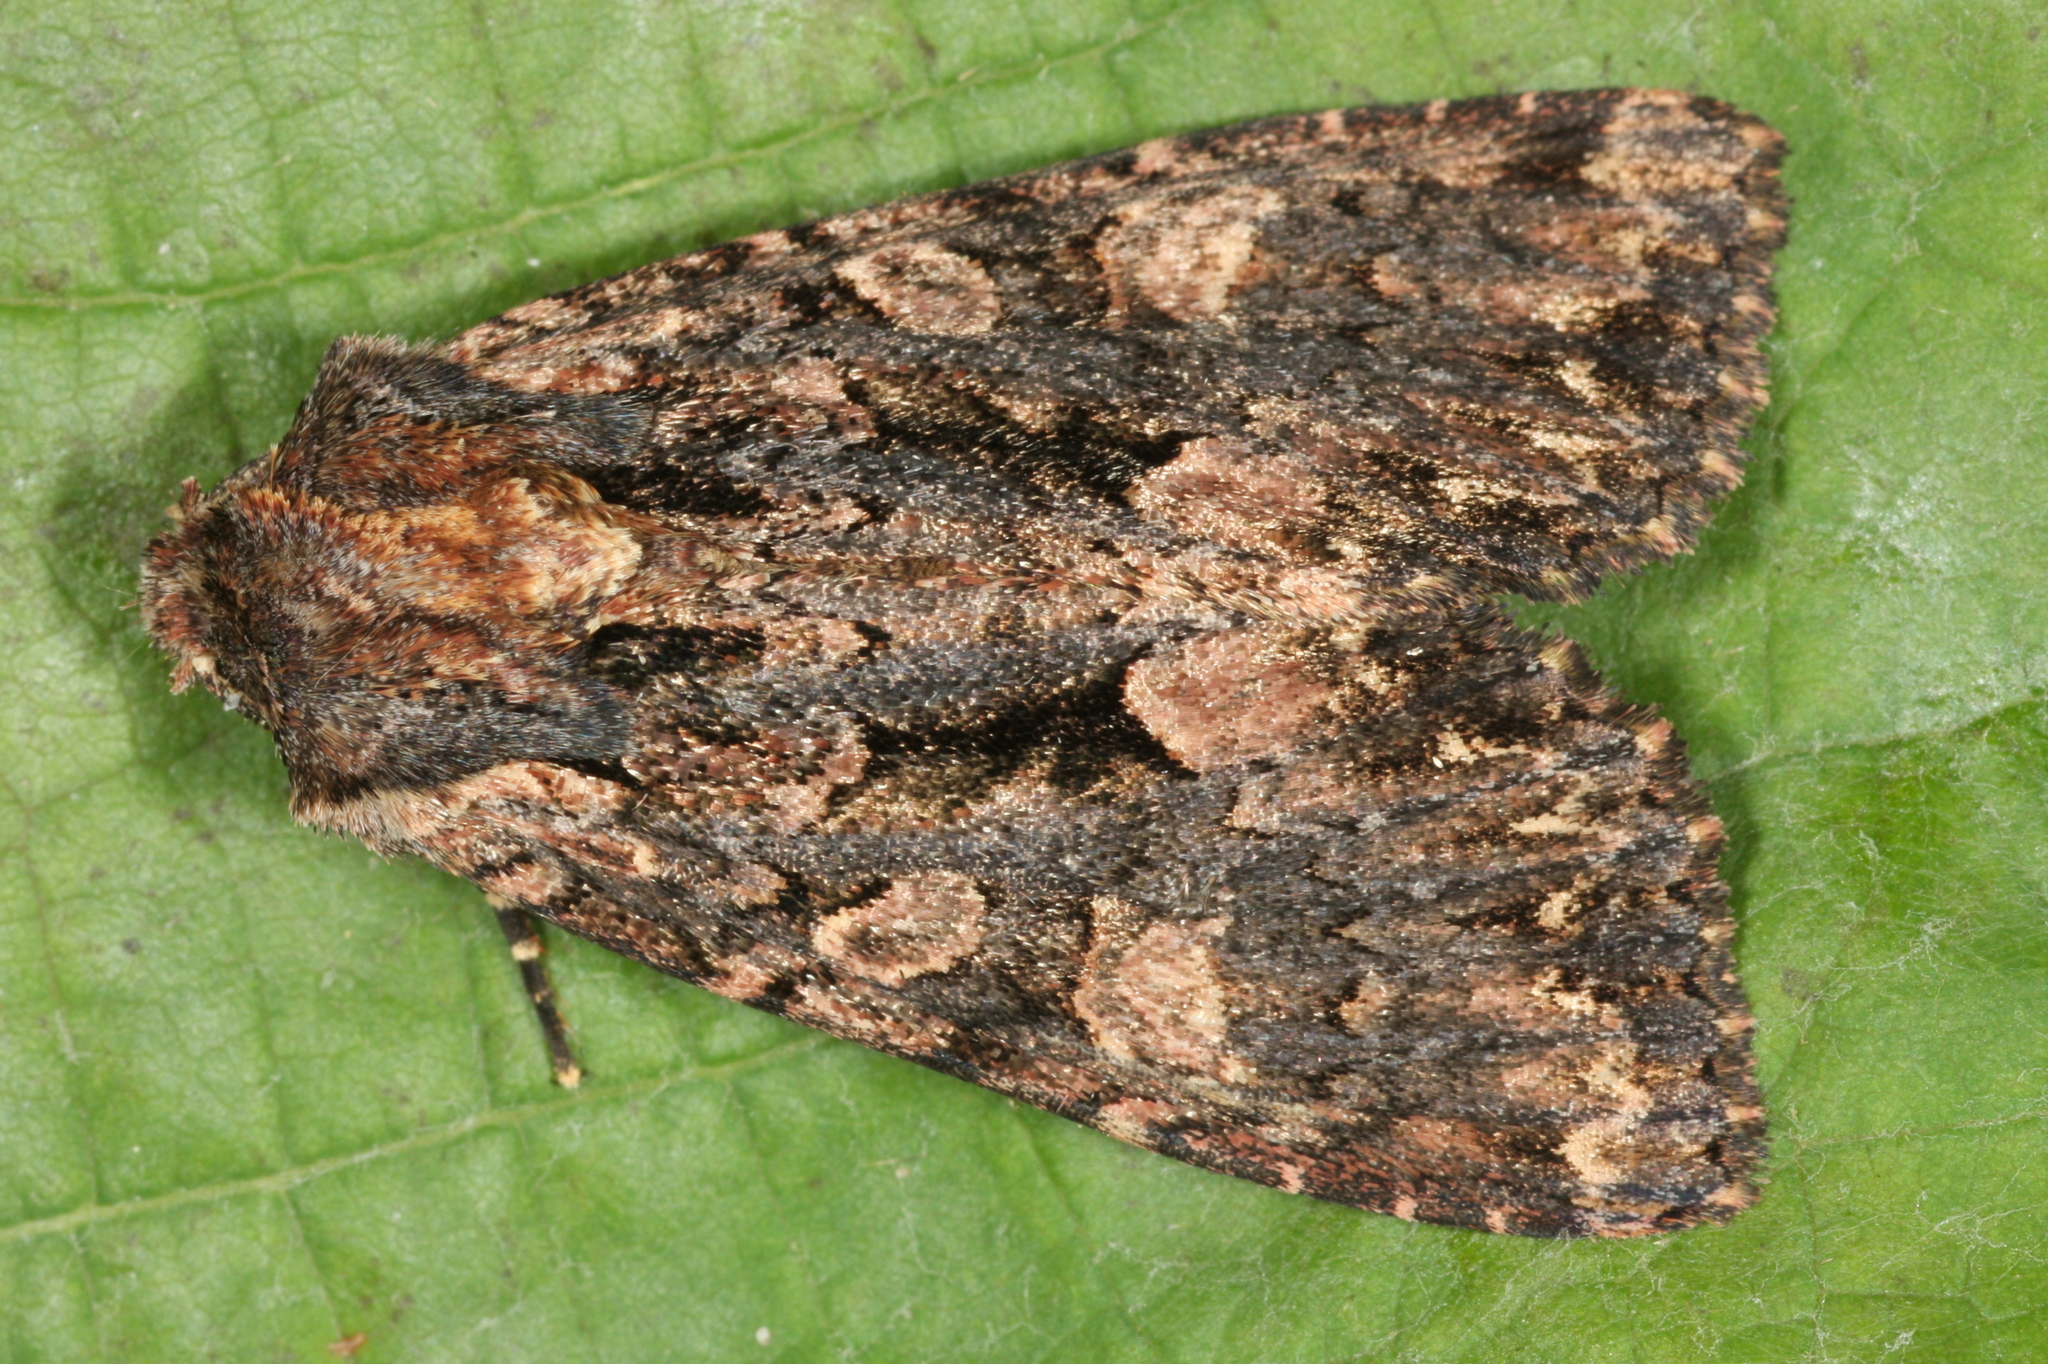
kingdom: Animalia
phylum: Arthropoda
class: Insecta
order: Lepidoptera
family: Noctuidae
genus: Mniotype
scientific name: Mniotype satura
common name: Beautiful arches
